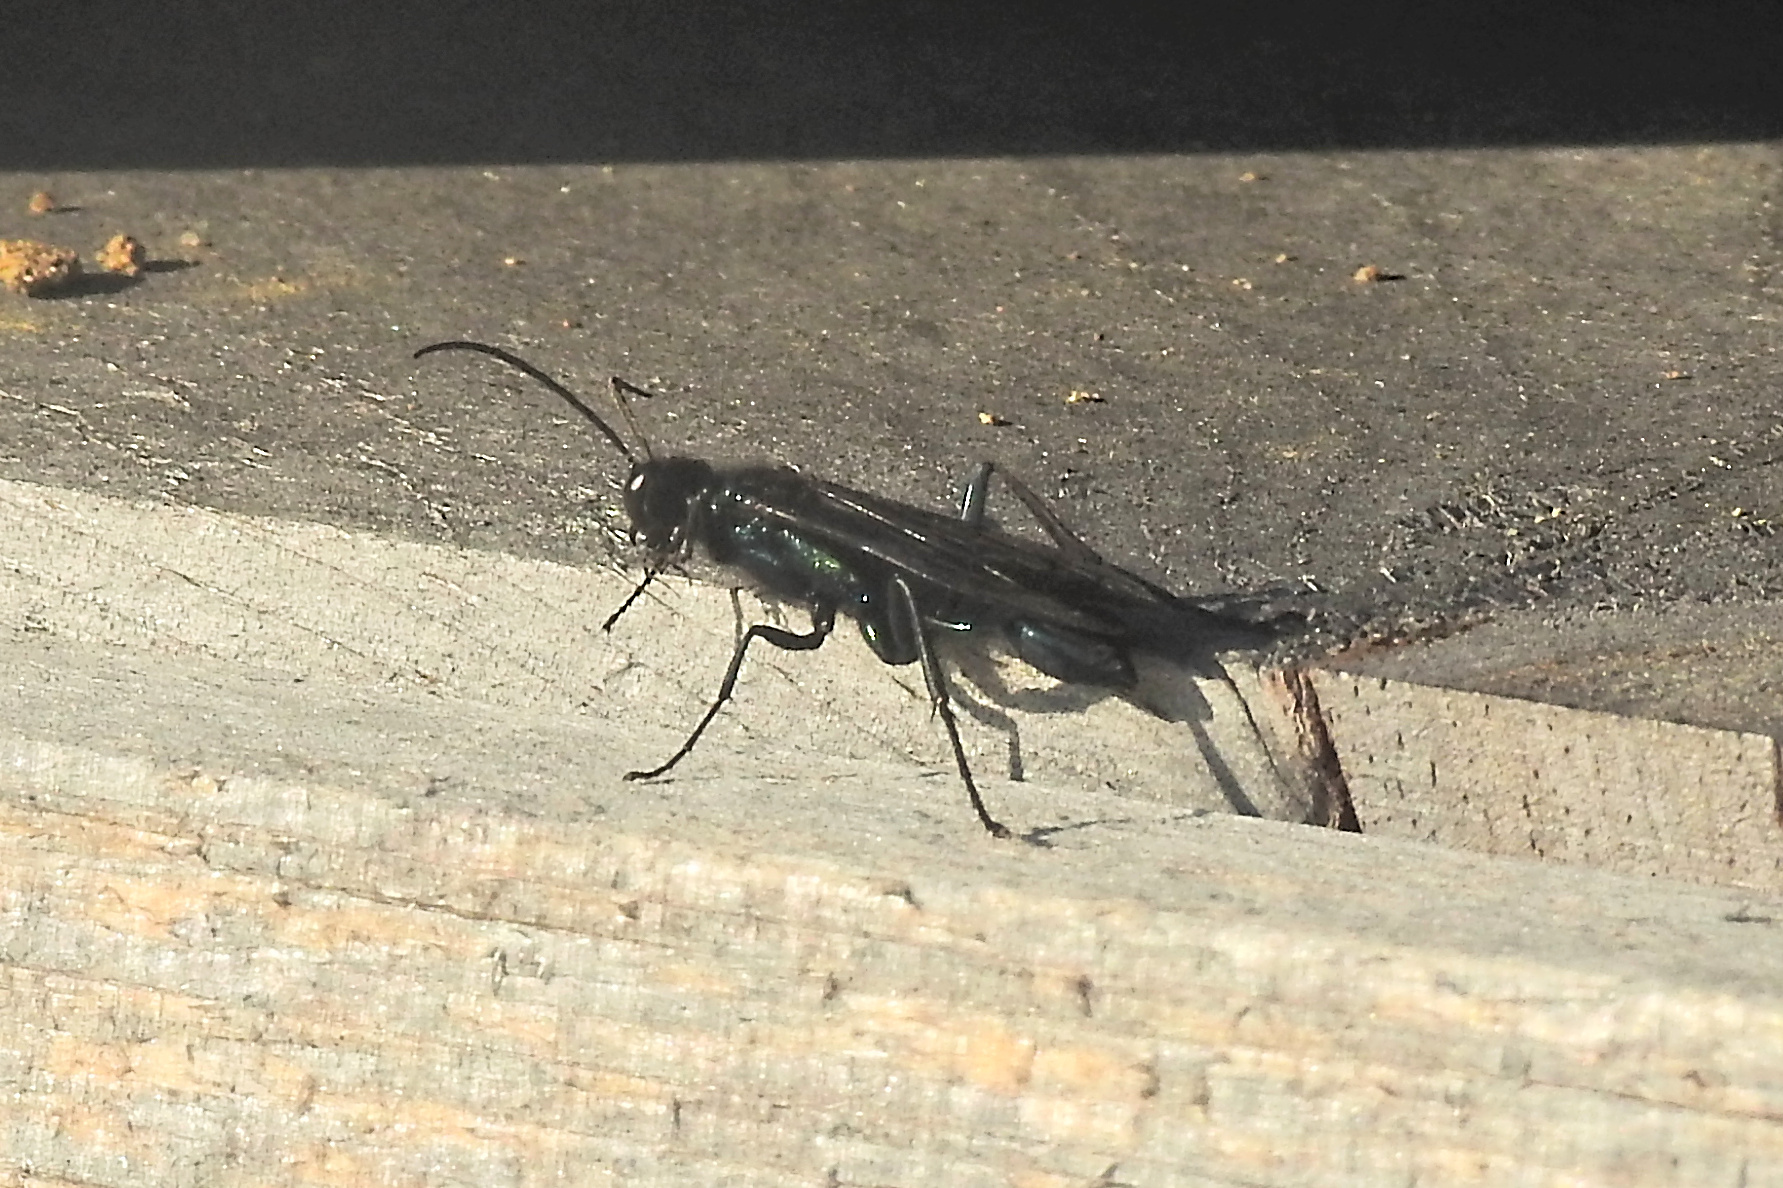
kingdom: Animalia
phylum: Arthropoda
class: Insecta
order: Hymenoptera
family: Sphecidae
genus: Chalybion
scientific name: Chalybion californicum
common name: Mud dauber
